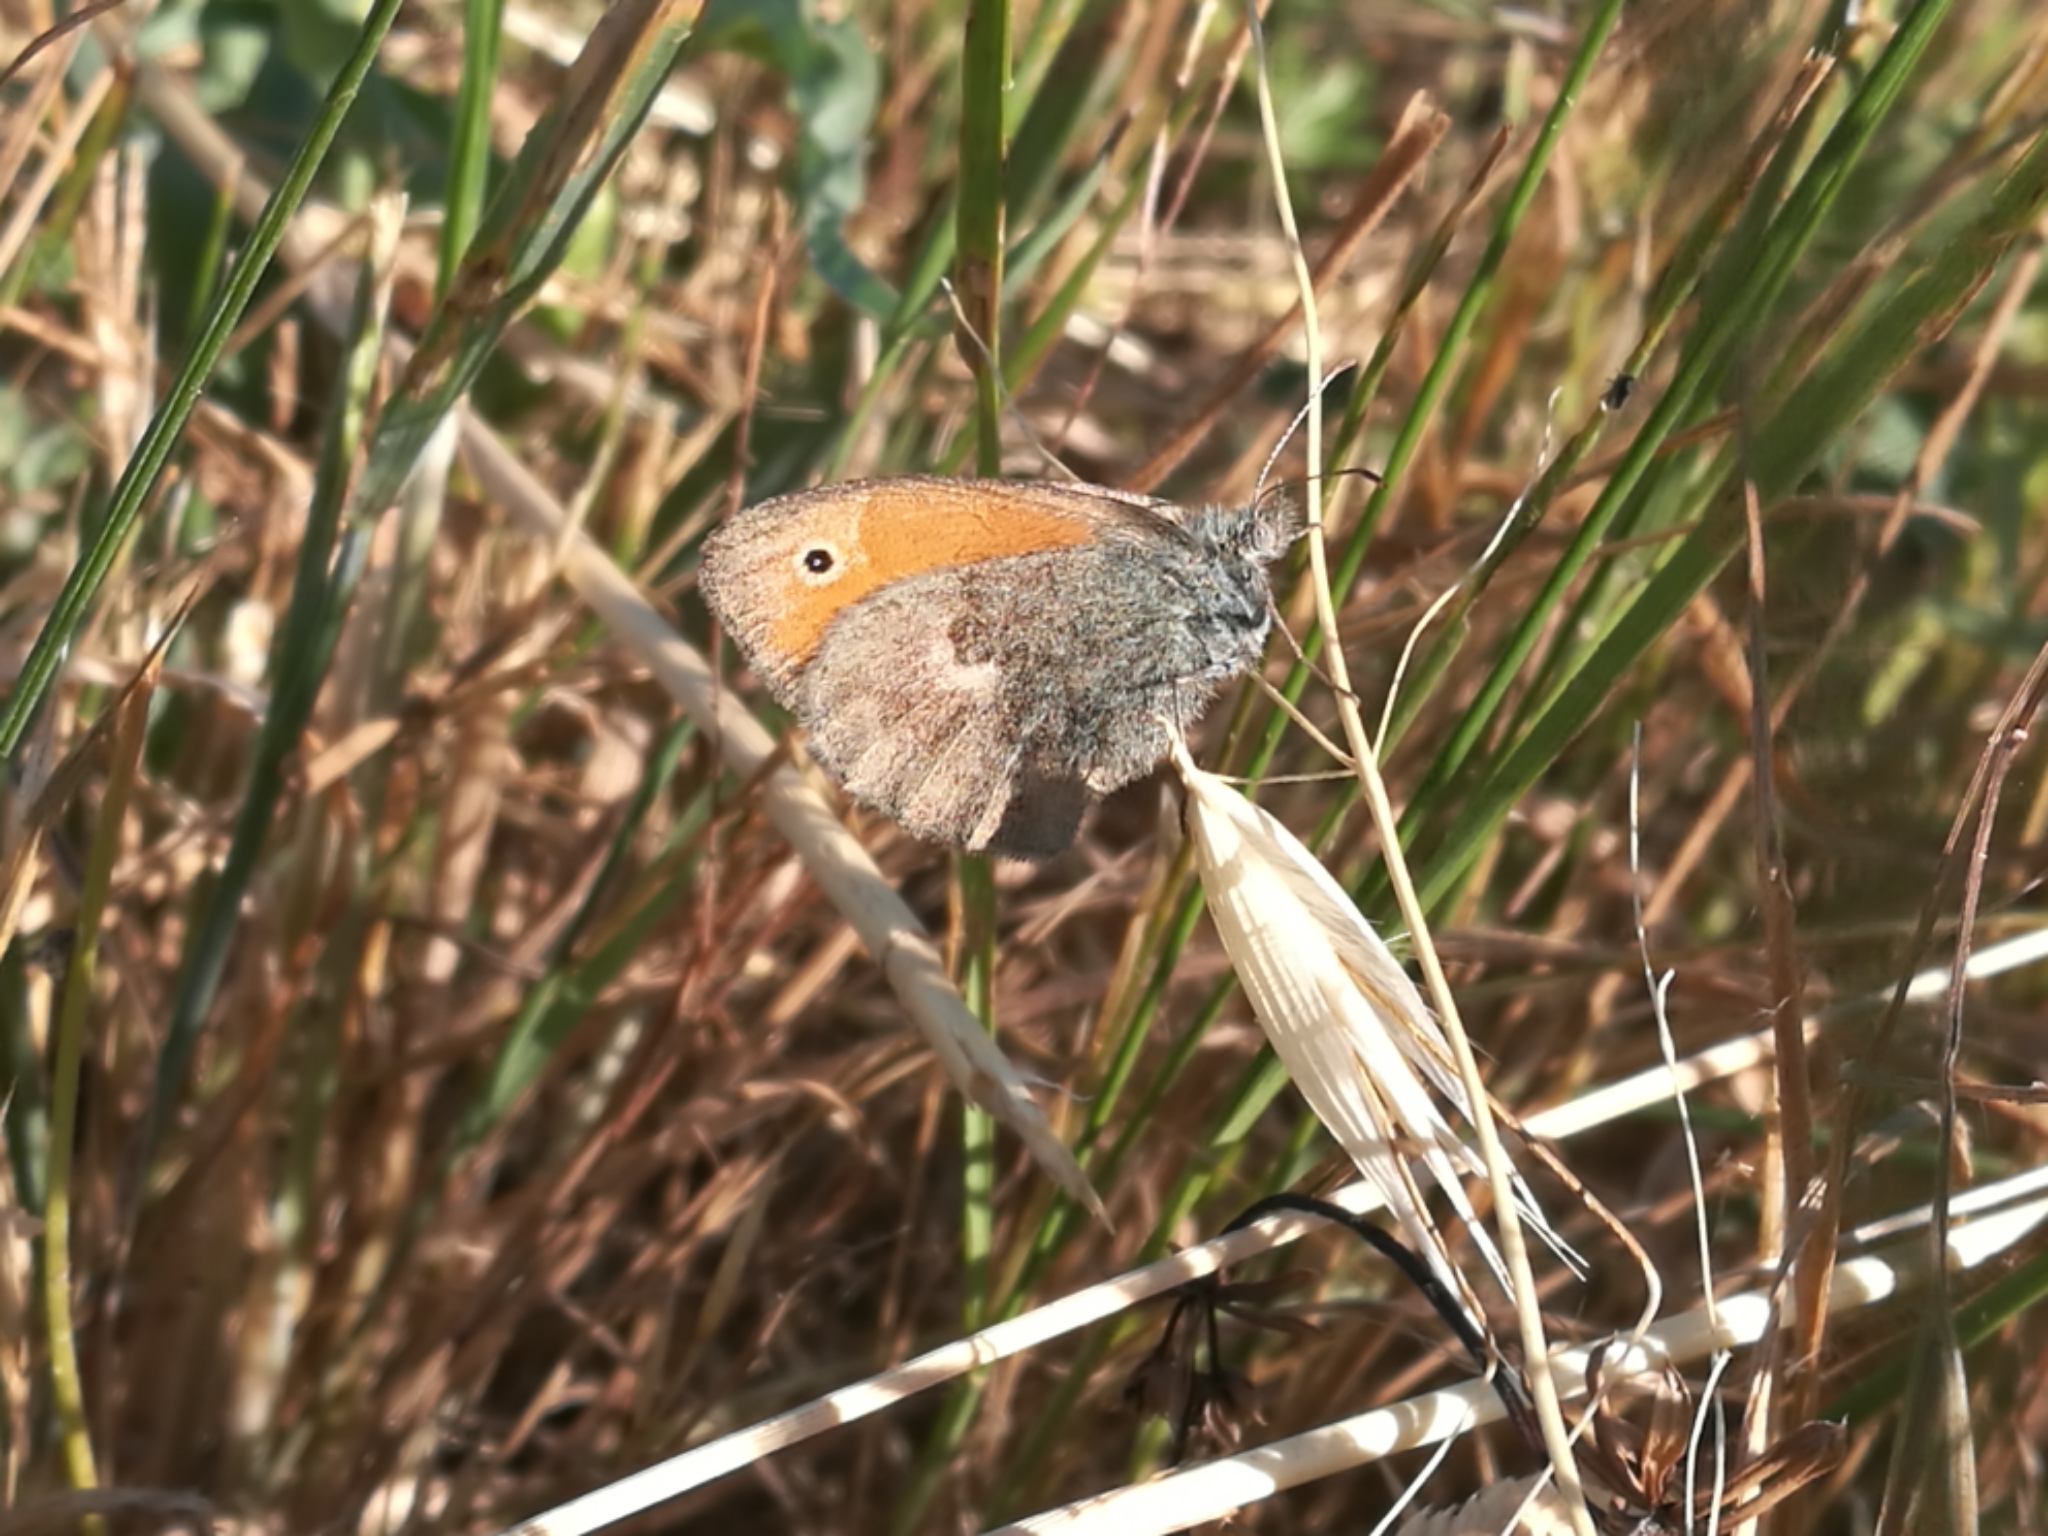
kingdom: Animalia
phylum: Arthropoda
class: Insecta
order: Lepidoptera
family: Nymphalidae
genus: Coenonympha
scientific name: Coenonympha pamphilus
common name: Small heath
